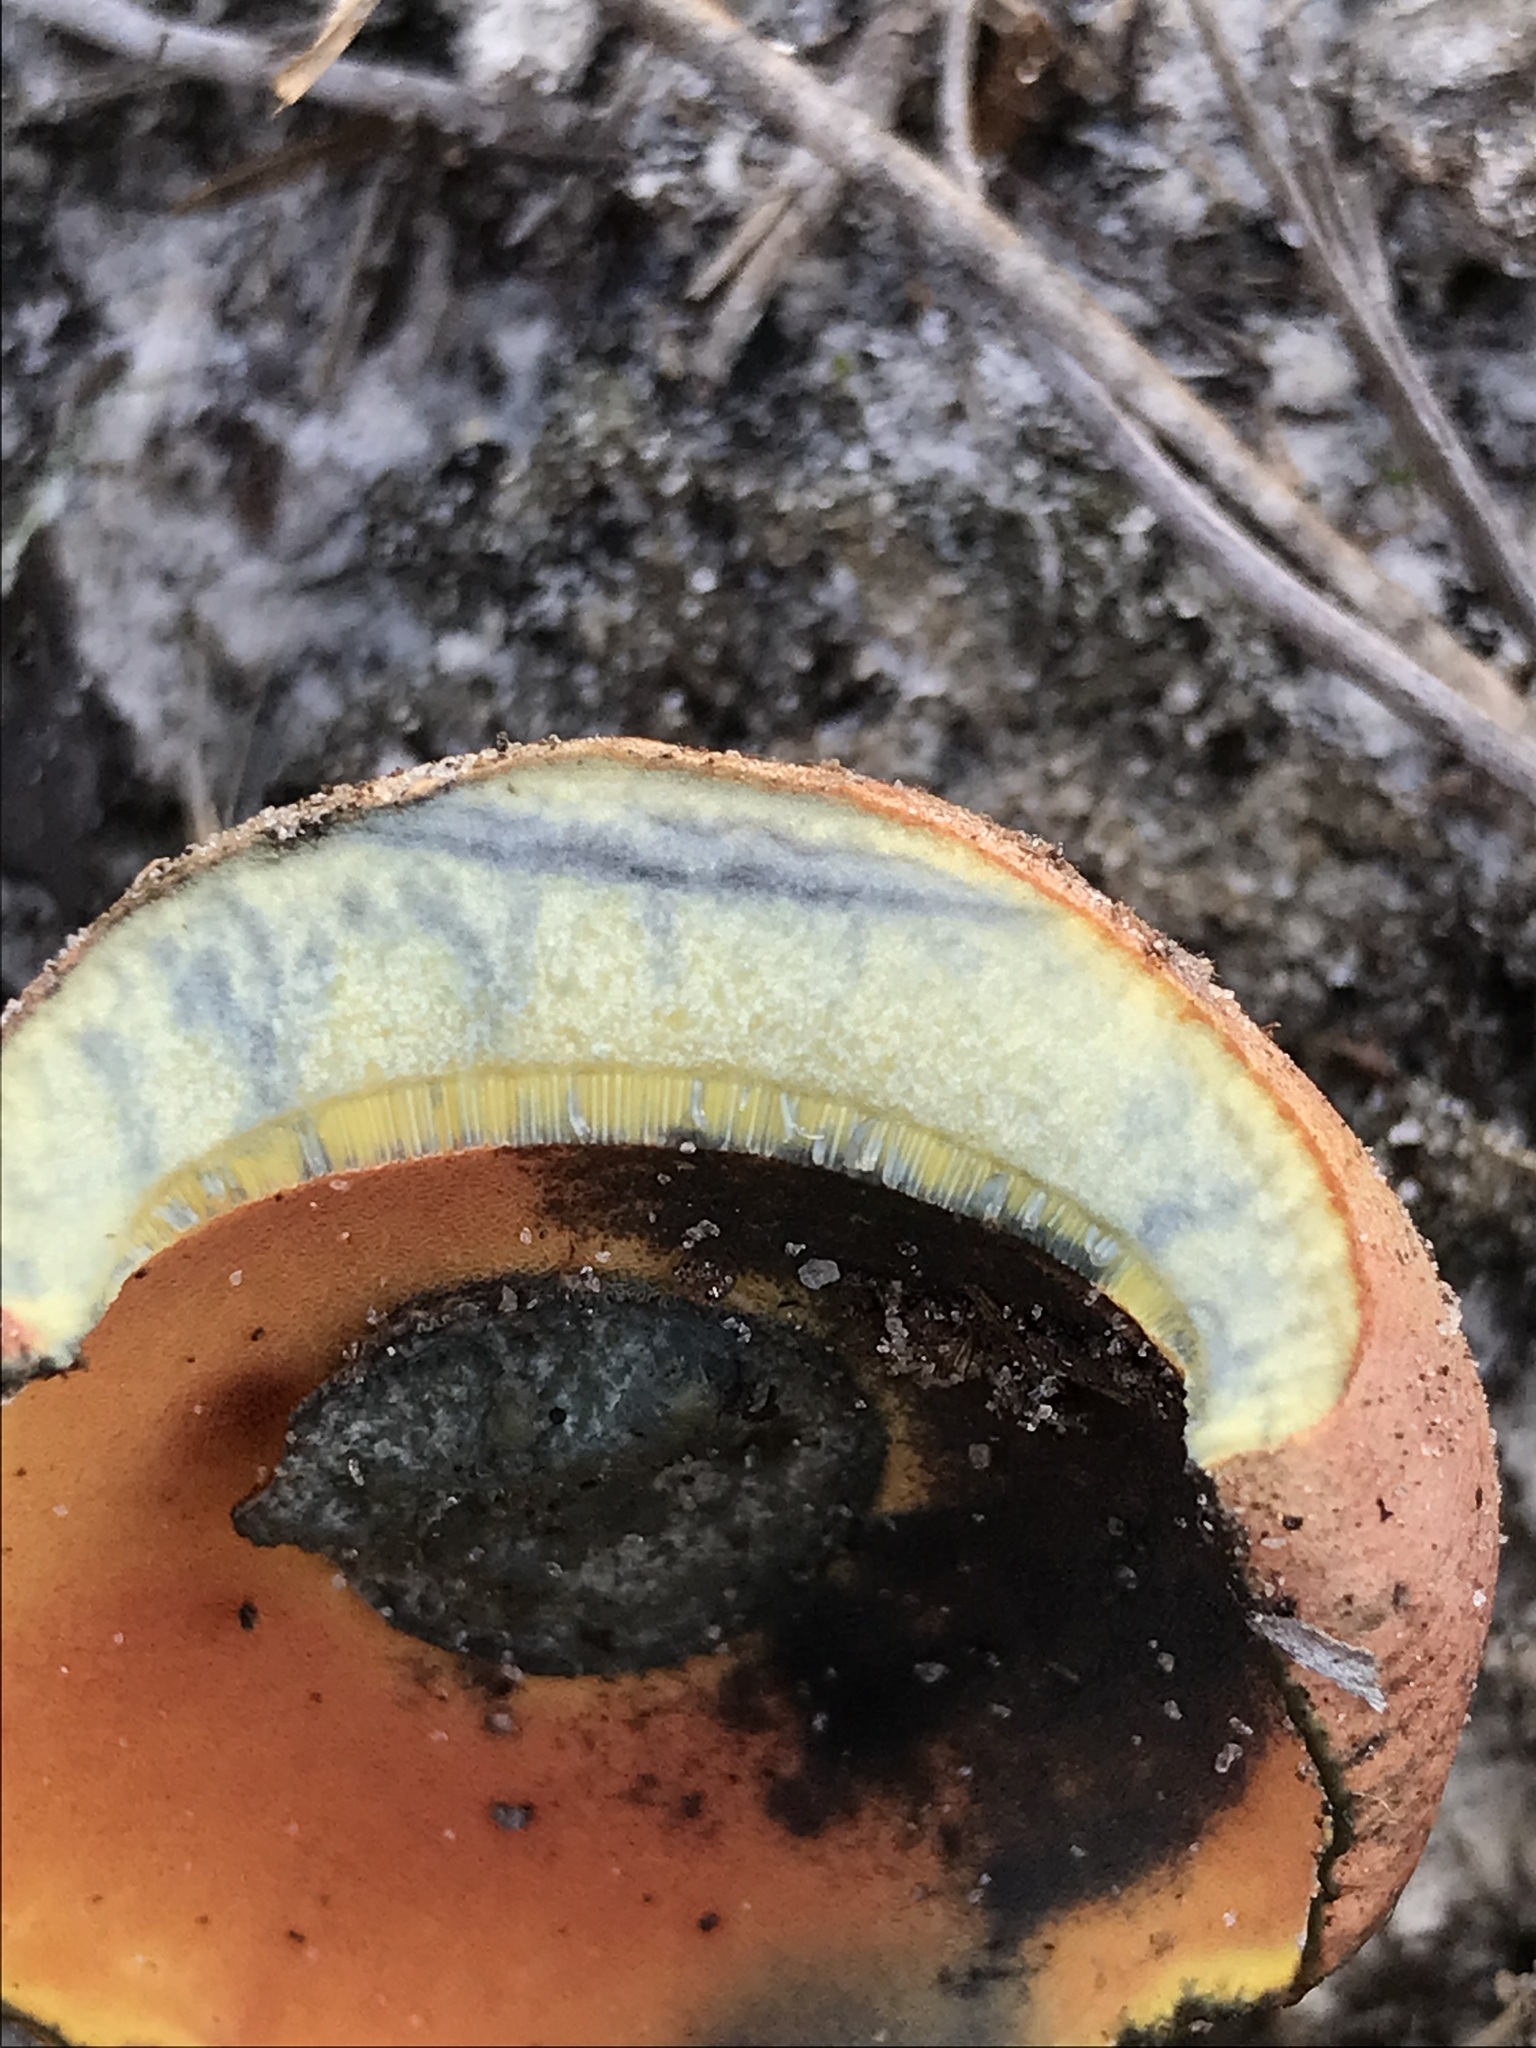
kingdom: Fungi
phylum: Basidiomycota
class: Agaricomycetes
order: Boletales
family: Boletaceae
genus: Butyriboletus
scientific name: Butyriboletus floridanus
